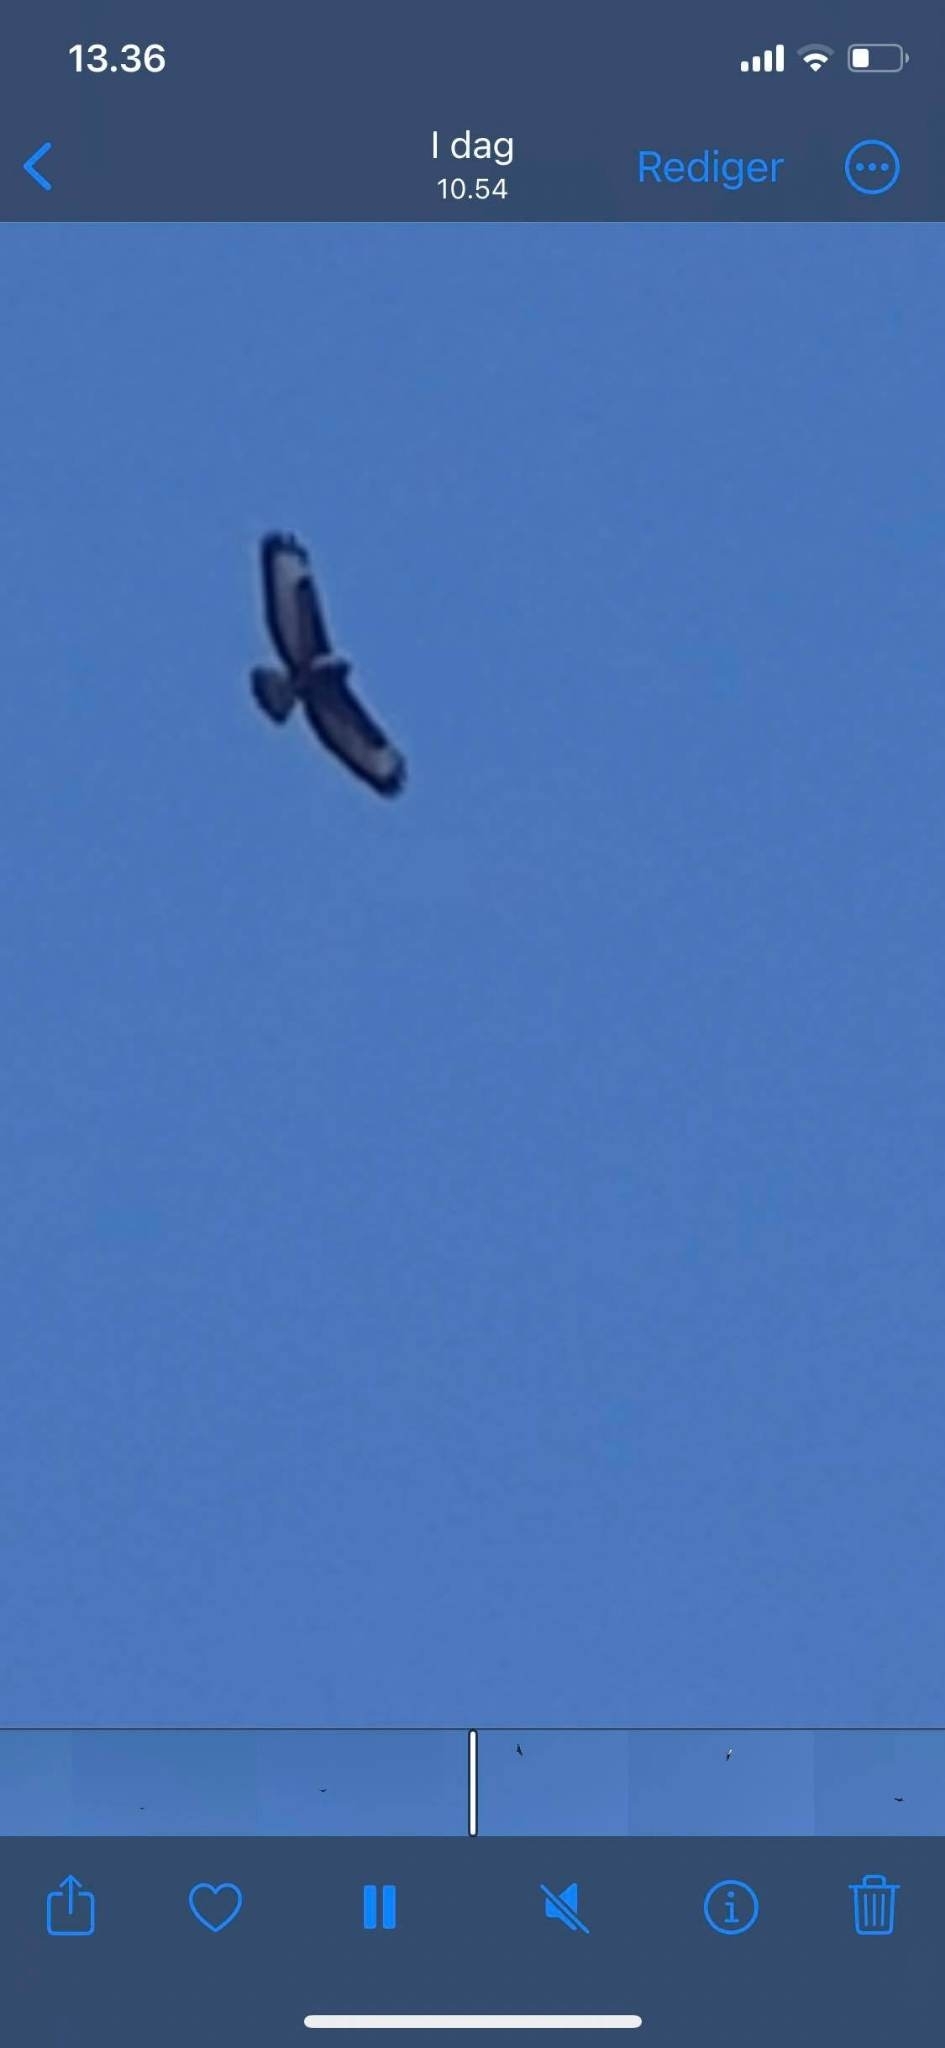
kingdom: Animalia
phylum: Chordata
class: Aves
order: Accipitriformes
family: Accipitridae
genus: Buteo
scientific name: Buteo buteo
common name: Common buzzard
